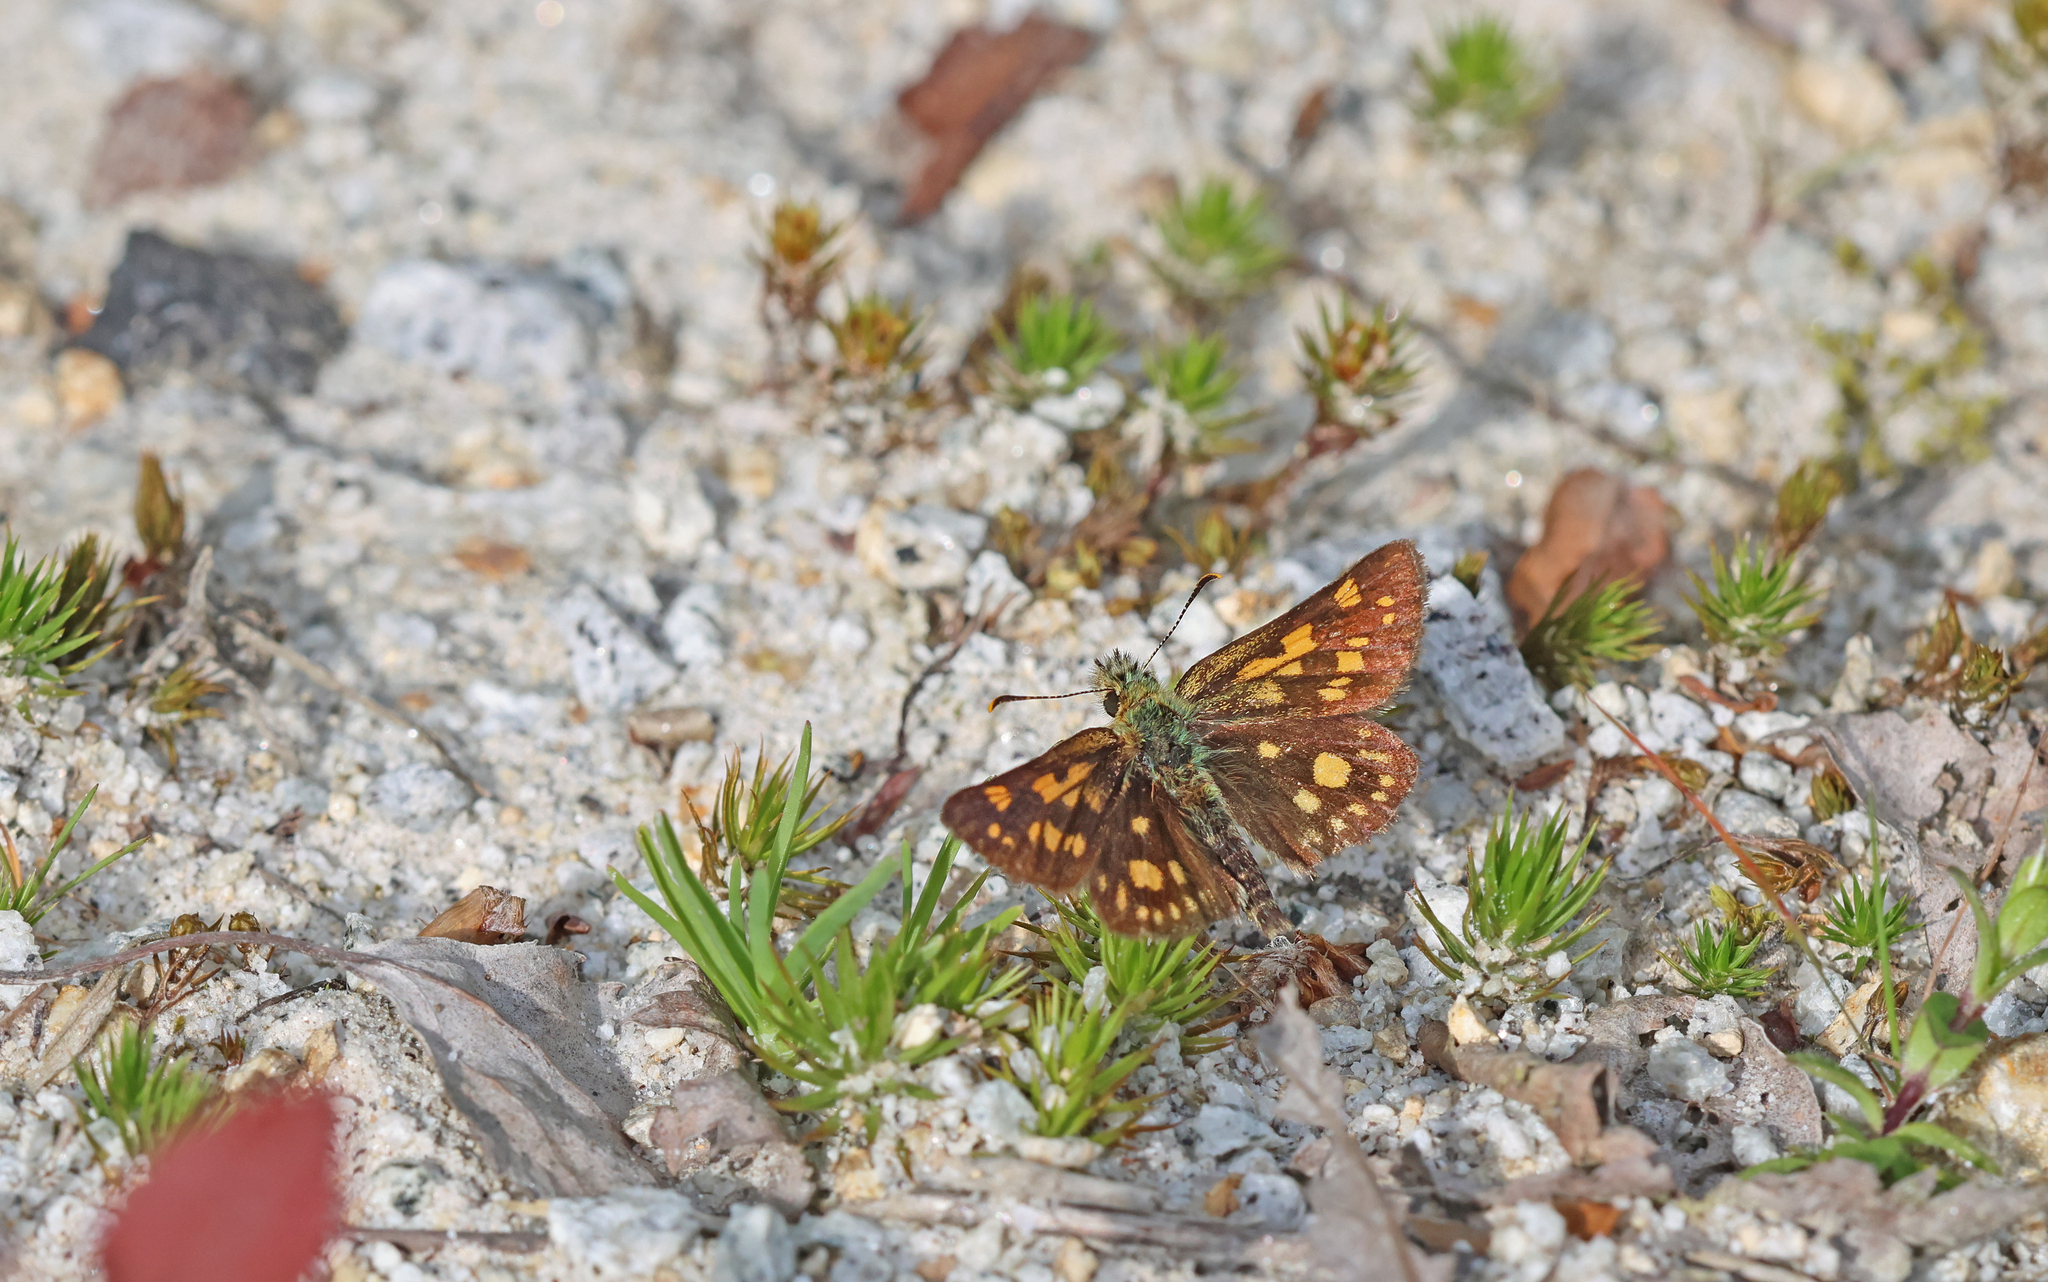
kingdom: Animalia
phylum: Arthropoda
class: Insecta
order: Lepidoptera
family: Hesperiidae
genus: Carterocephalus
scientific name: Carterocephalus palaemon
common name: Chequered skipper
